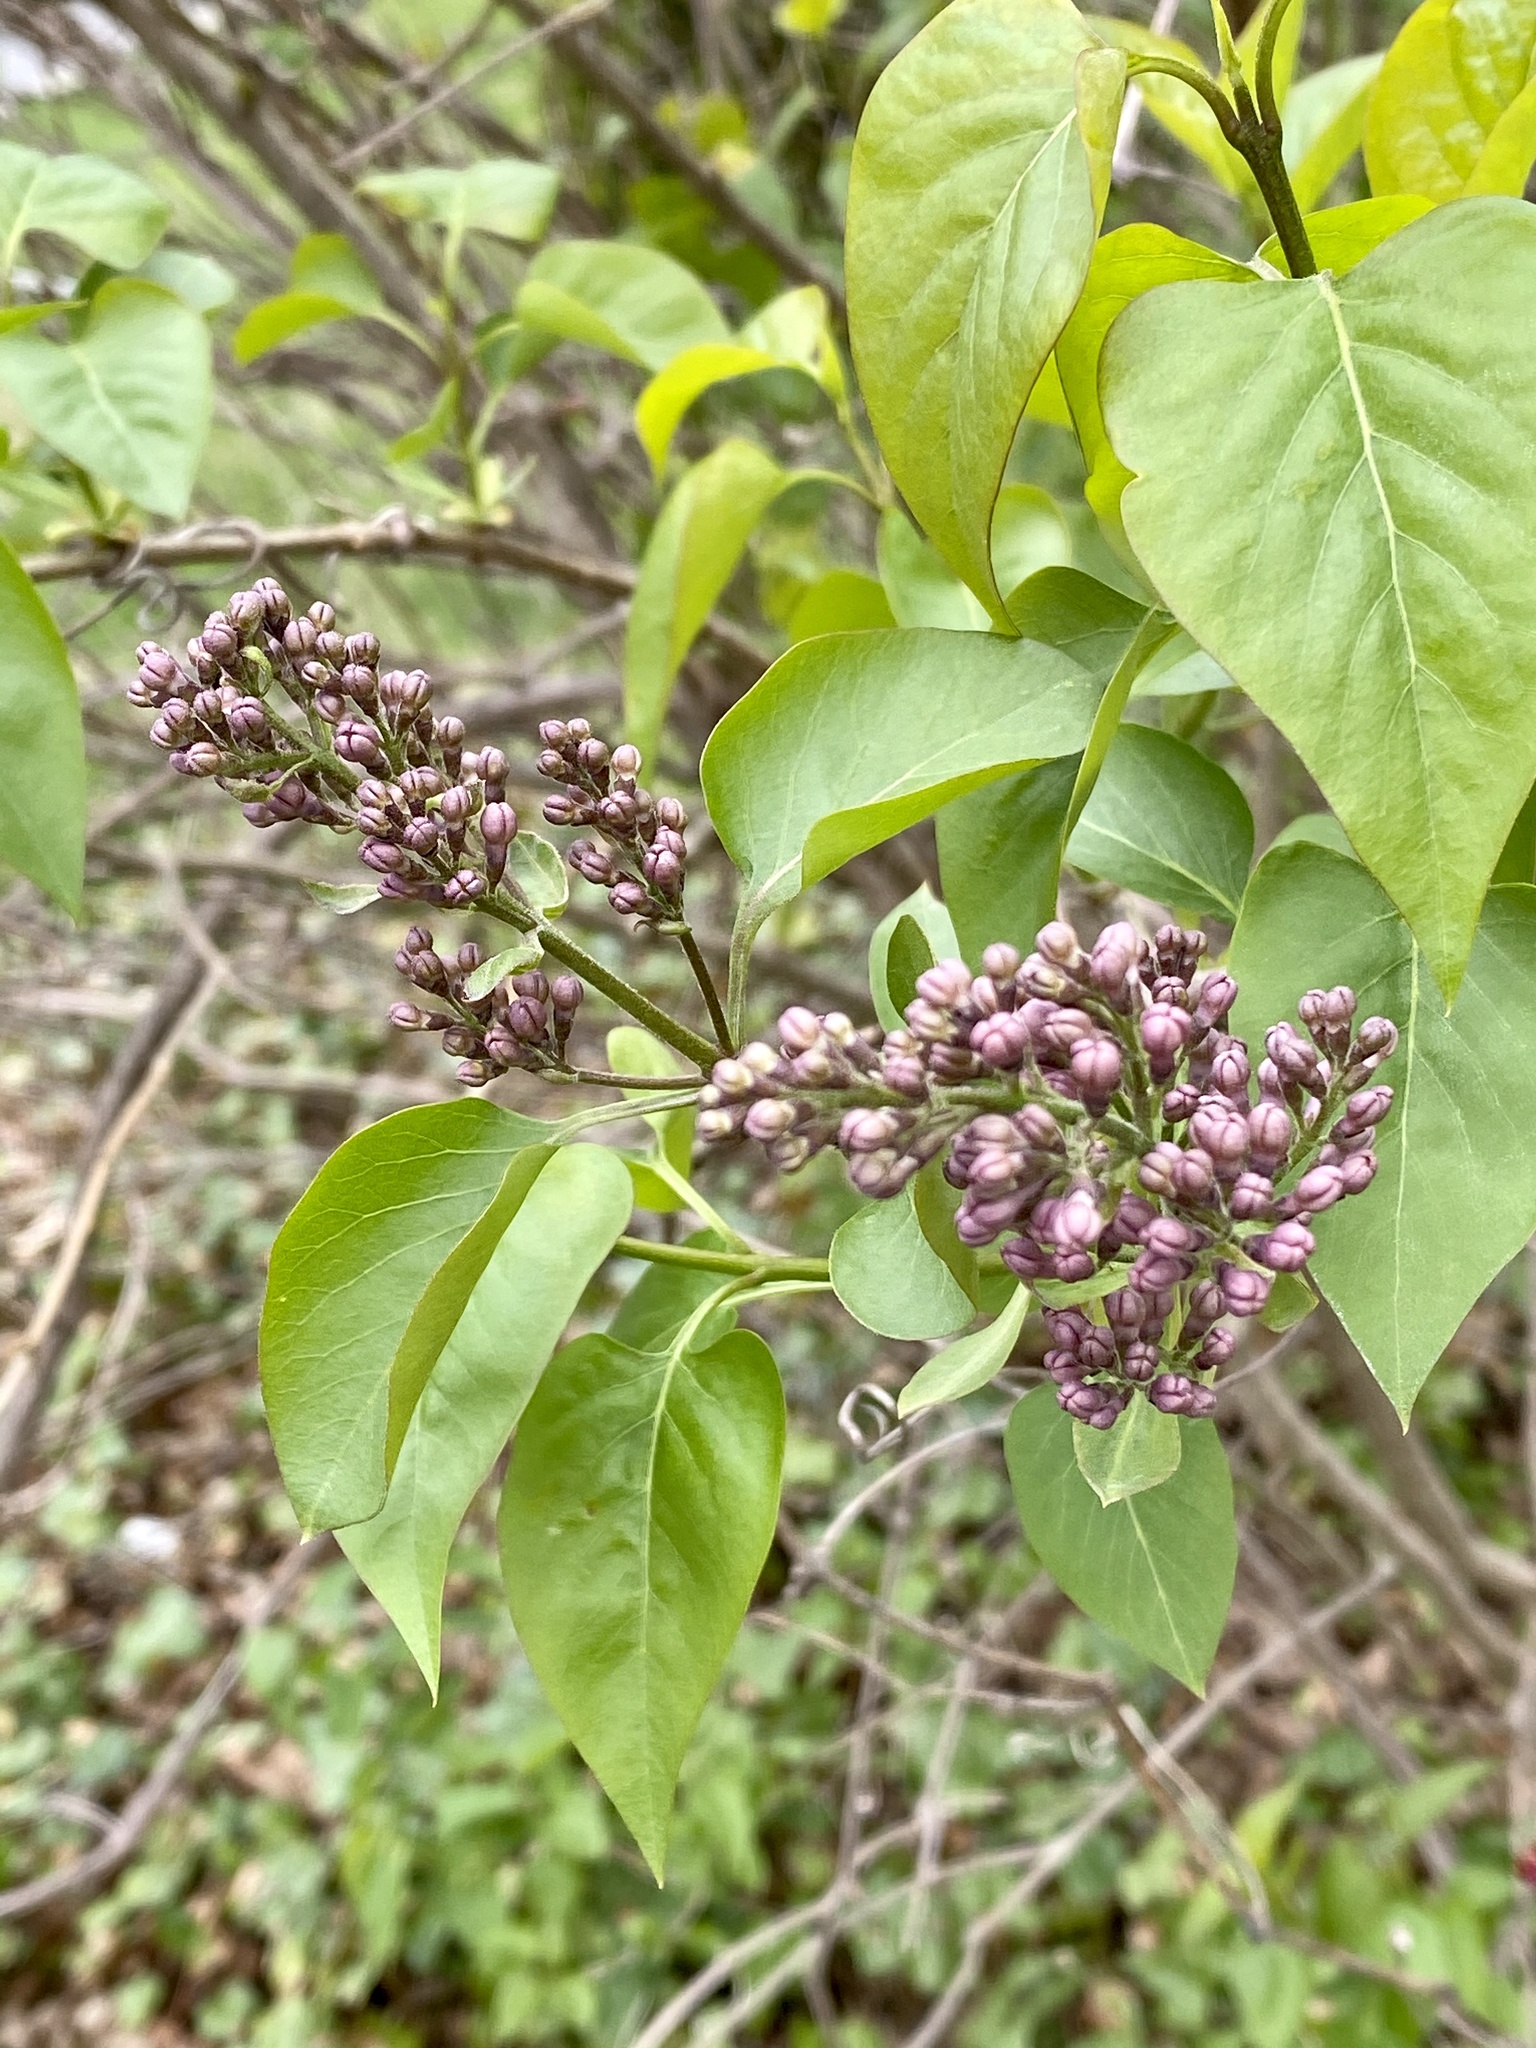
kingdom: Plantae
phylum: Tracheophyta
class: Magnoliopsida
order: Lamiales
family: Oleaceae
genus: Syringa
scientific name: Syringa vulgaris
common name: Common lilac
